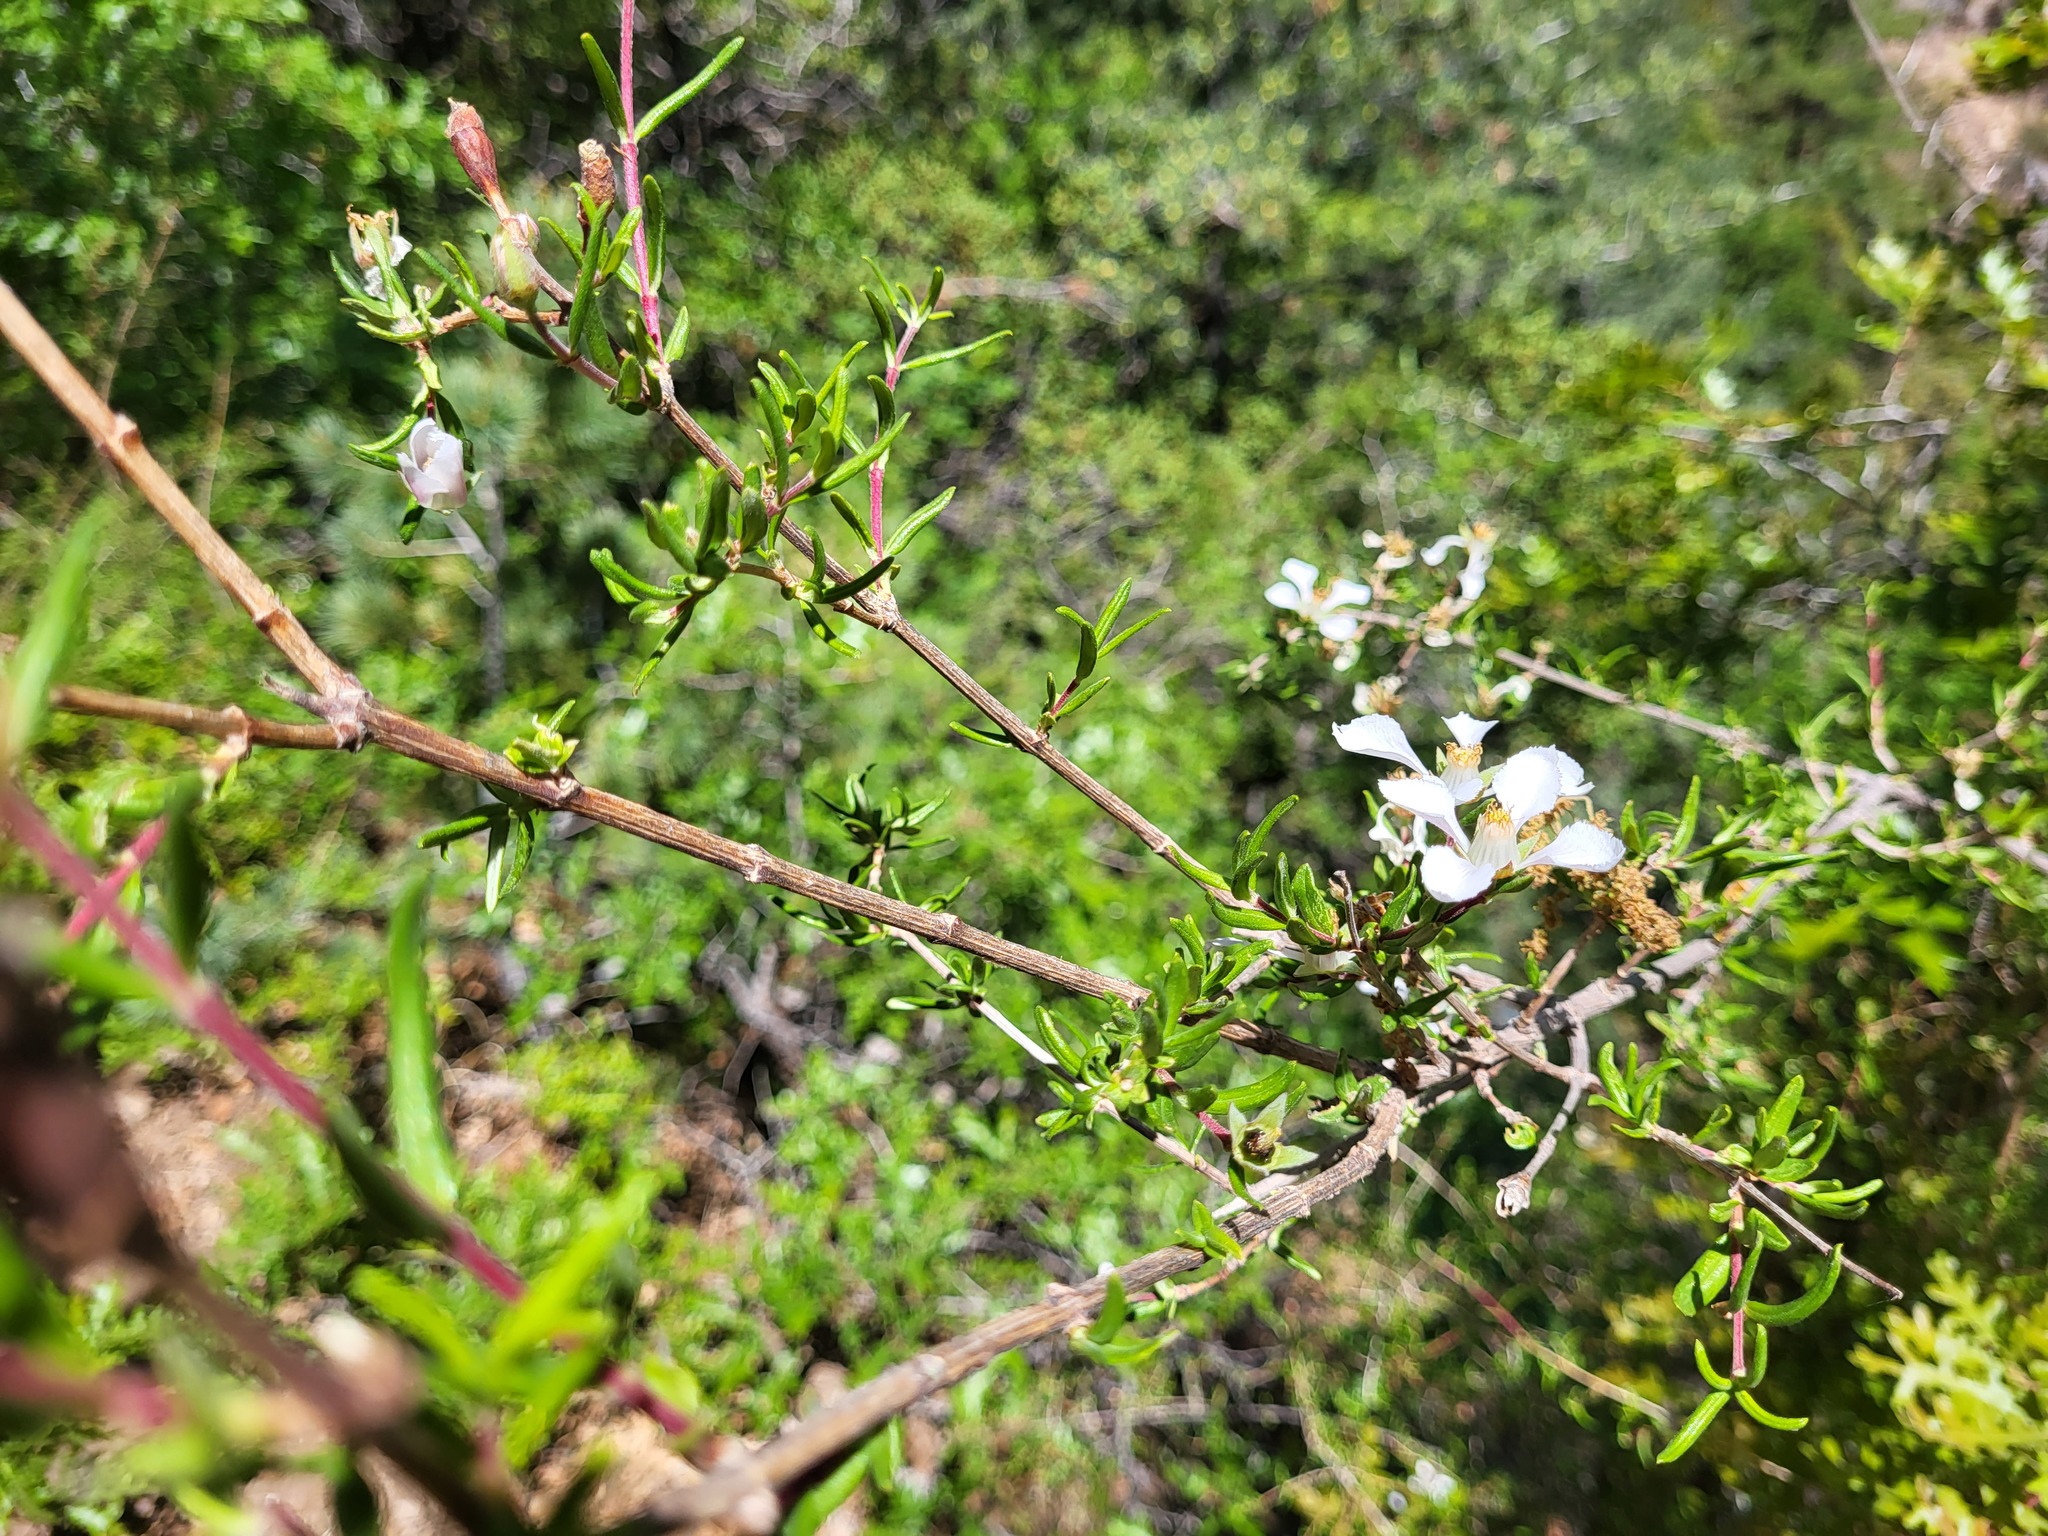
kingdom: Plantae
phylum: Tracheophyta
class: Magnoliopsida
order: Cornales
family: Hydrangeaceae
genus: Fendlera
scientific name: Fendlera rupicola
